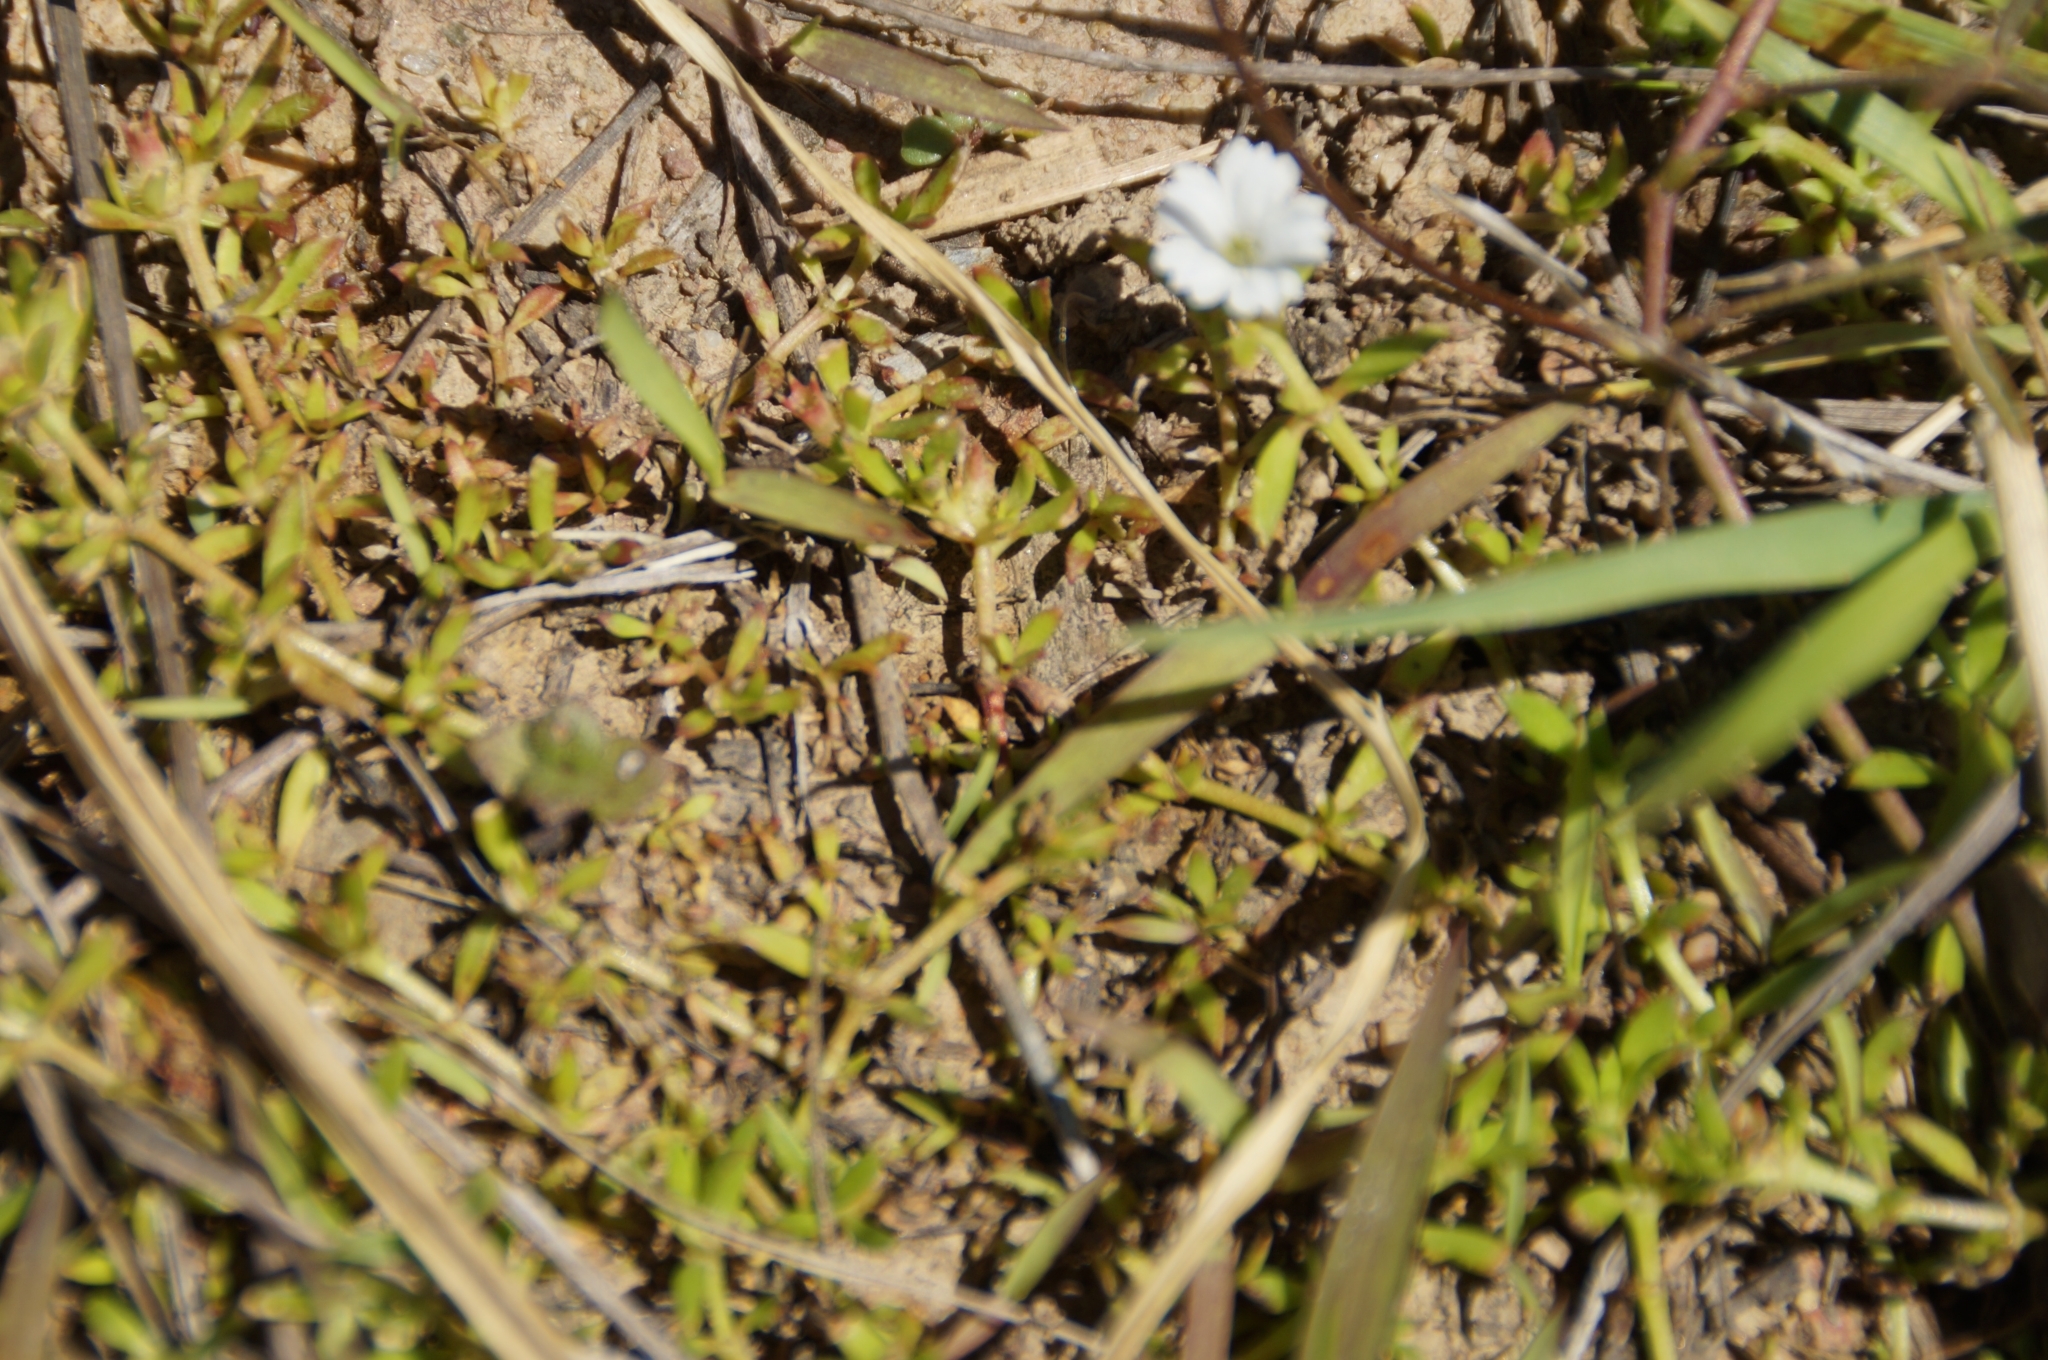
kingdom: Plantae
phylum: Tracheophyta
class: Magnoliopsida
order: Gentianales
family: Rubiaceae
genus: Dentella
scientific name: Dentella repens
